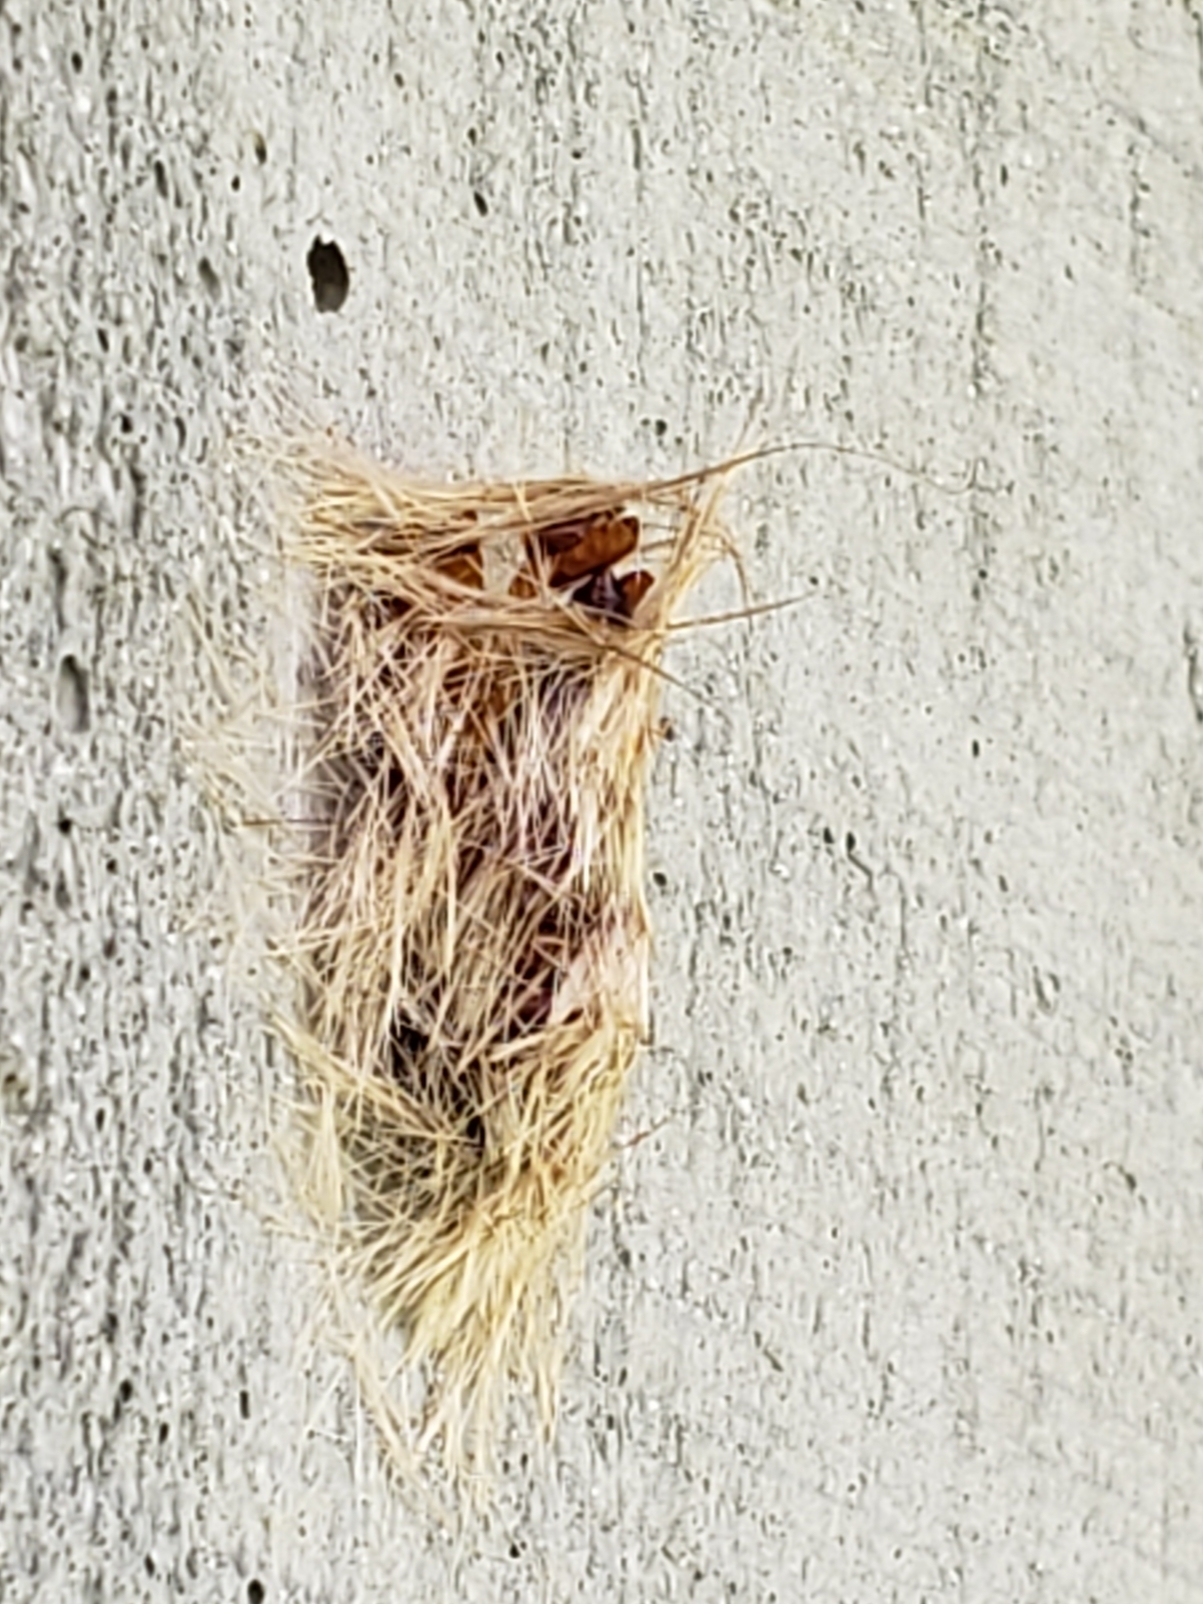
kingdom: Animalia
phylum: Arthropoda
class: Insecta
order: Lepidoptera
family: Erebidae
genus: Lymire
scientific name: Lymire edwardsii
